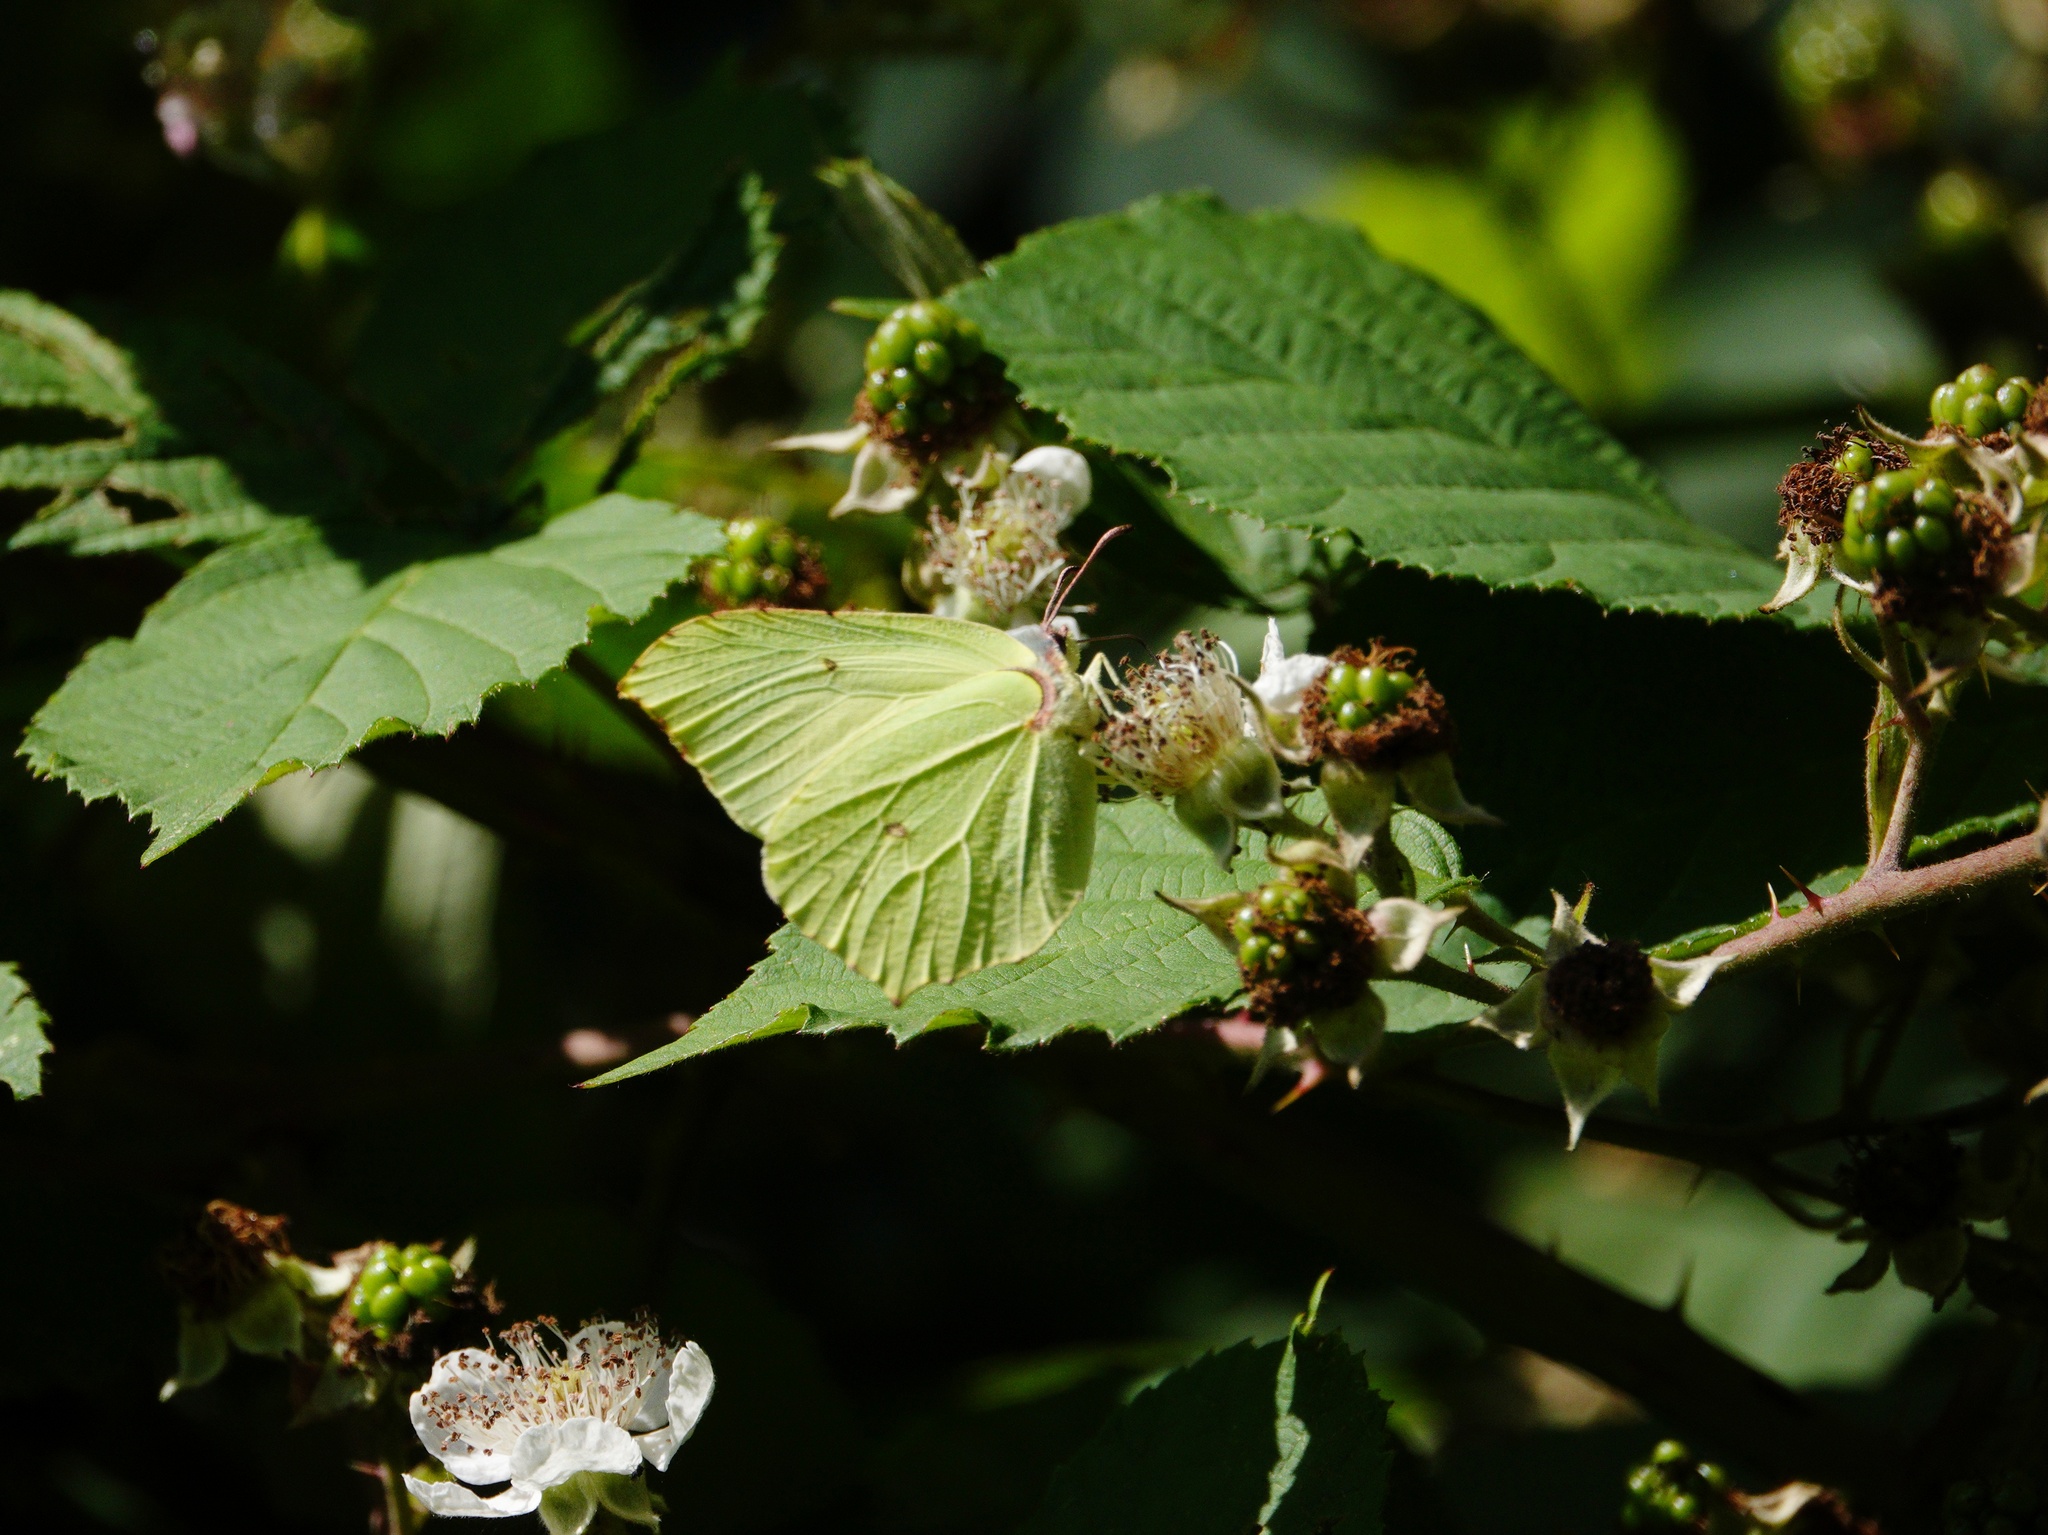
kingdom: Animalia
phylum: Arthropoda
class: Insecta
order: Lepidoptera
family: Pieridae
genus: Gonepteryx
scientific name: Gonepteryx rhamni
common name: Brimstone
